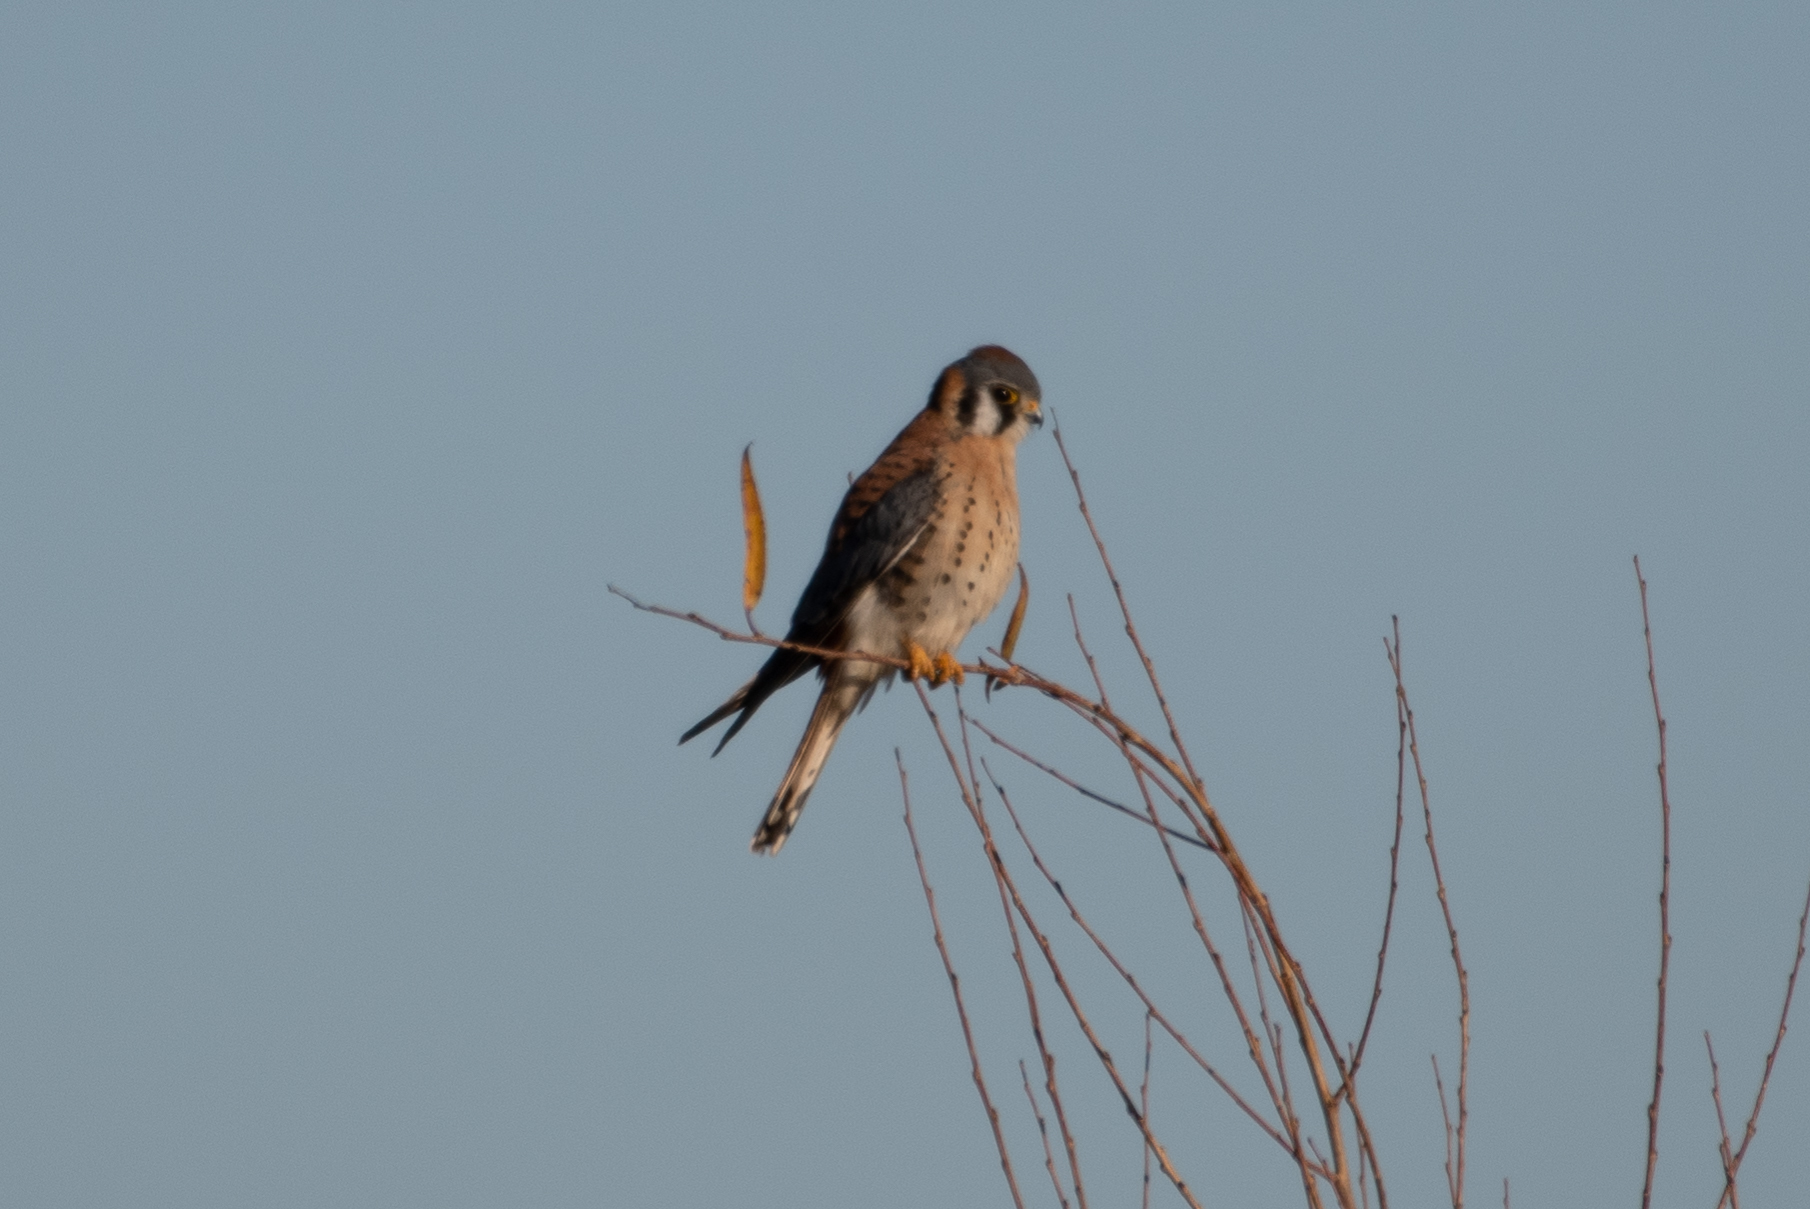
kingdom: Animalia
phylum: Chordata
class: Aves
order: Falconiformes
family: Falconidae
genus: Falco
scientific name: Falco sparverius
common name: American kestrel
